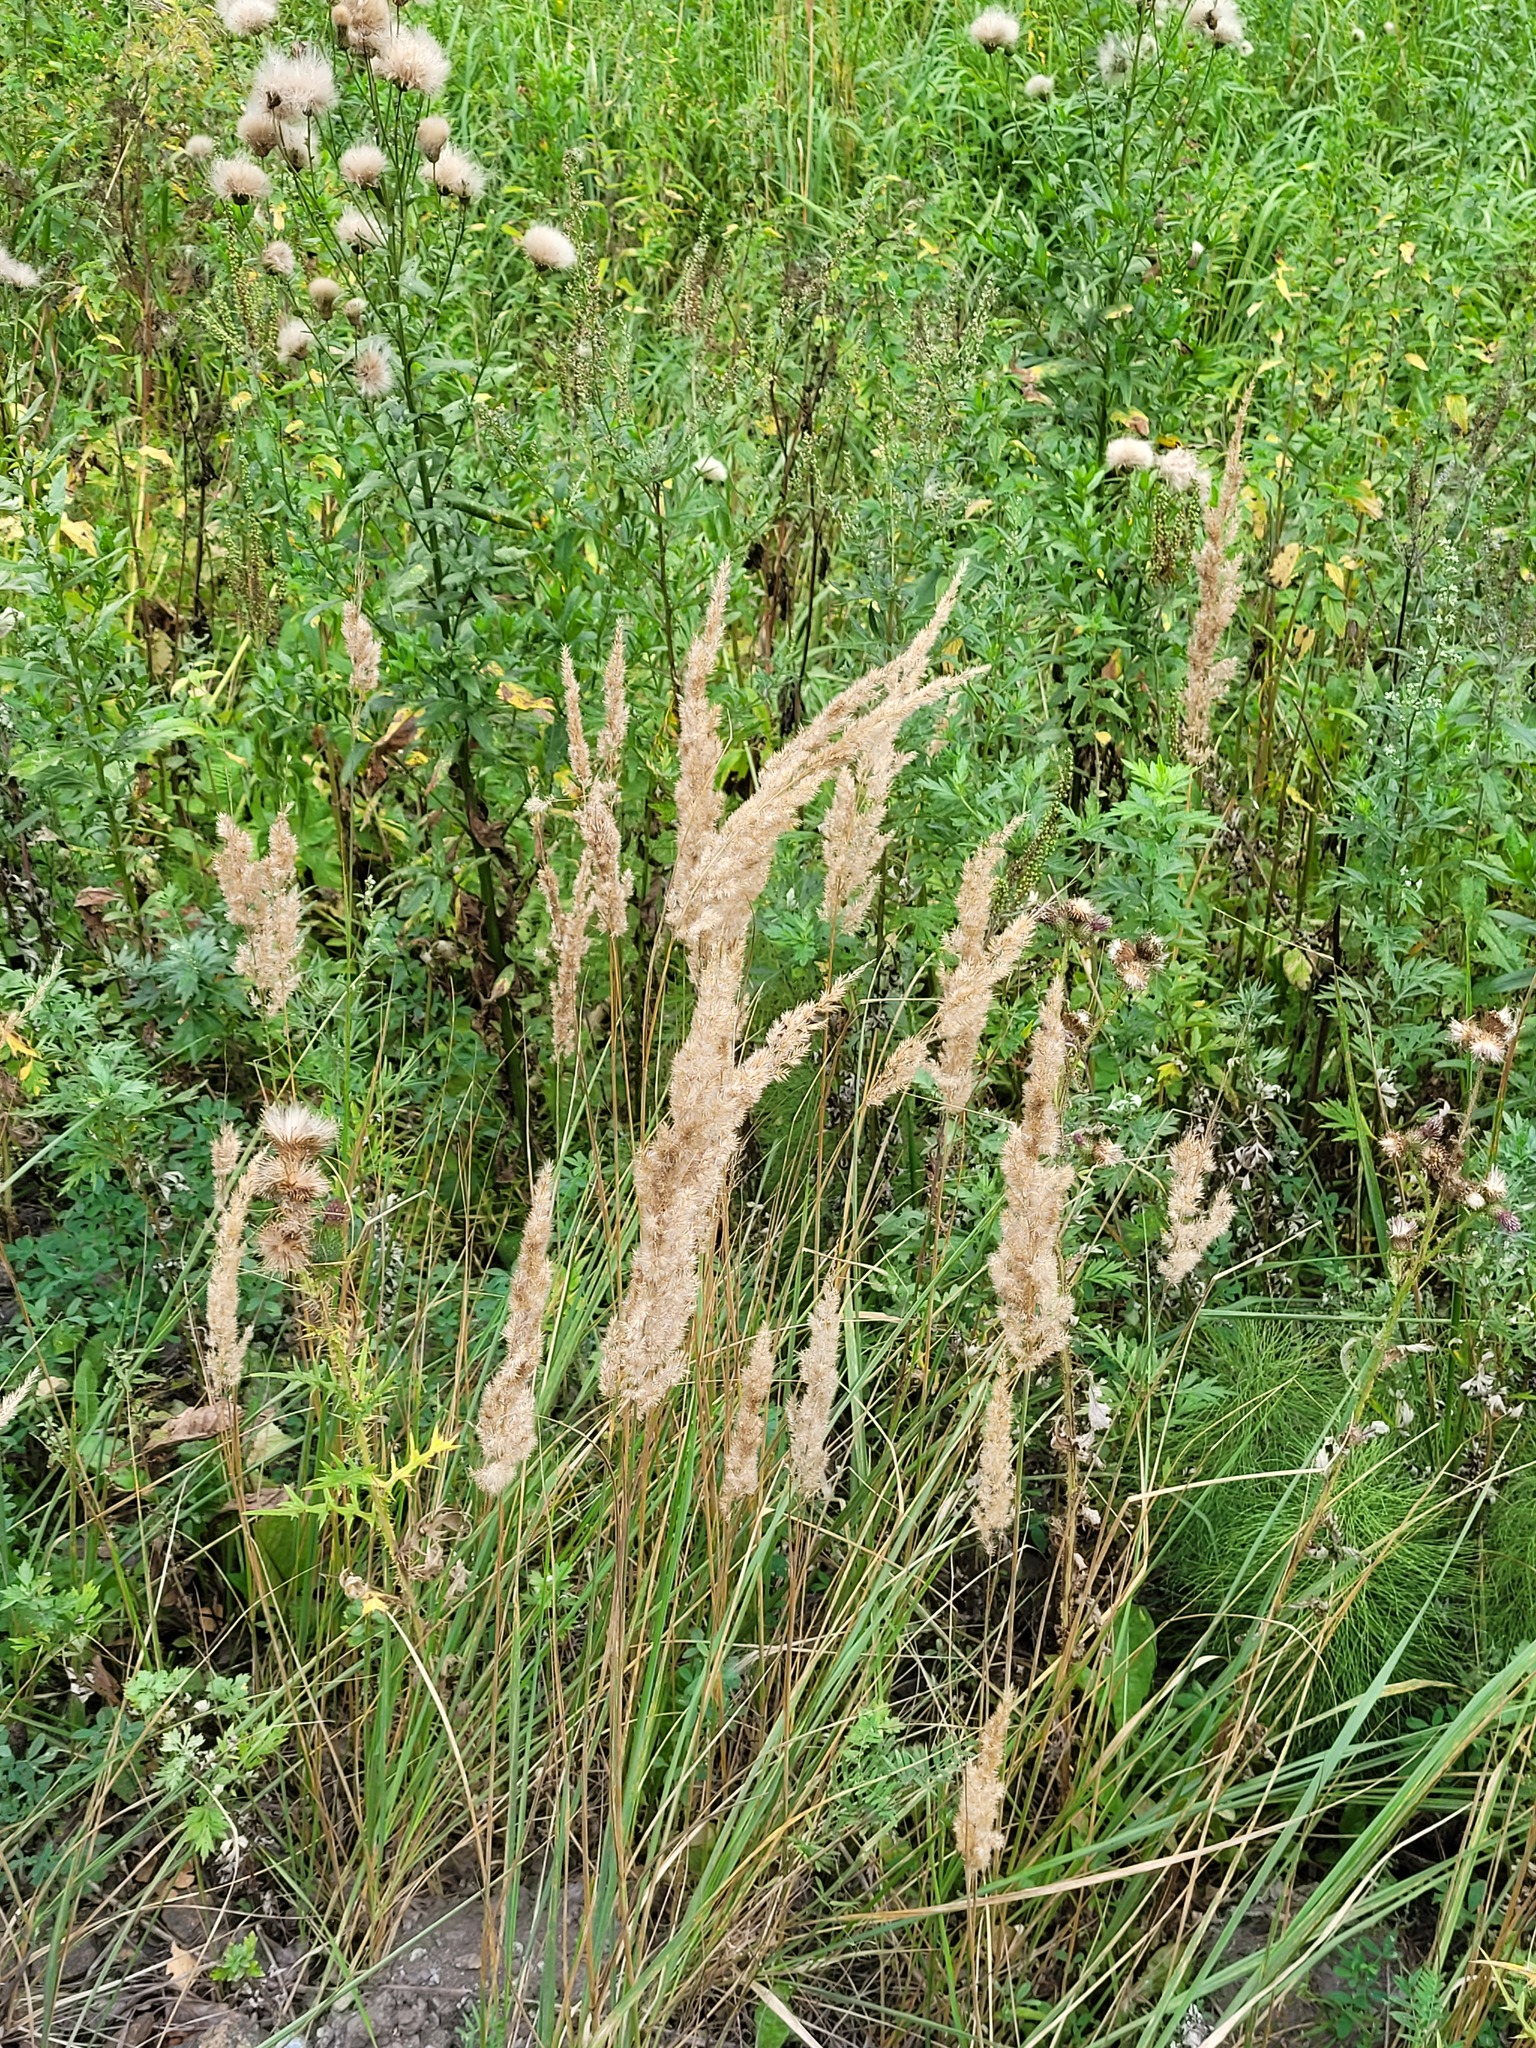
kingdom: Plantae
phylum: Tracheophyta
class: Liliopsida
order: Poales
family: Poaceae
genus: Calamagrostis
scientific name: Calamagrostis epigejos
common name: Wood small-reed
